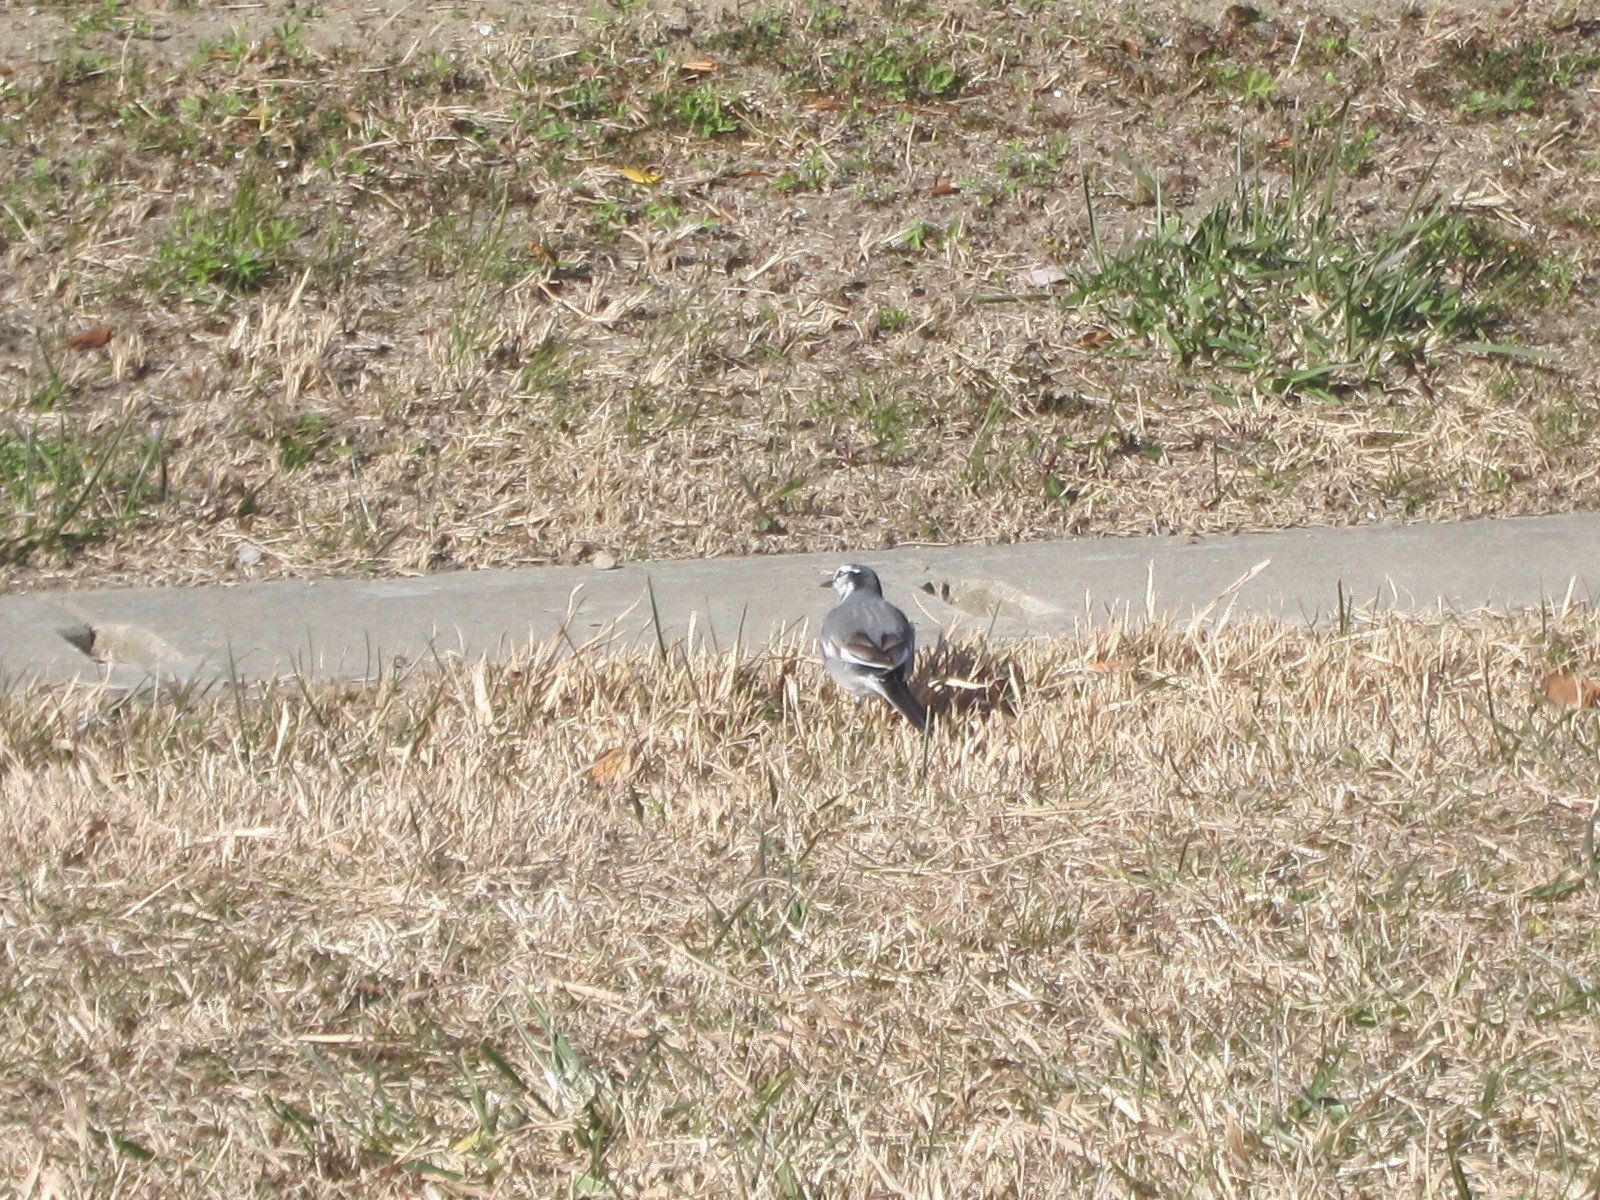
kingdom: Animalia
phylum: Chordata
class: Aves
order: Passeriformes
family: Motacillidae
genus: Motacilla
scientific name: Motacilla alba
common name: White wagtail
